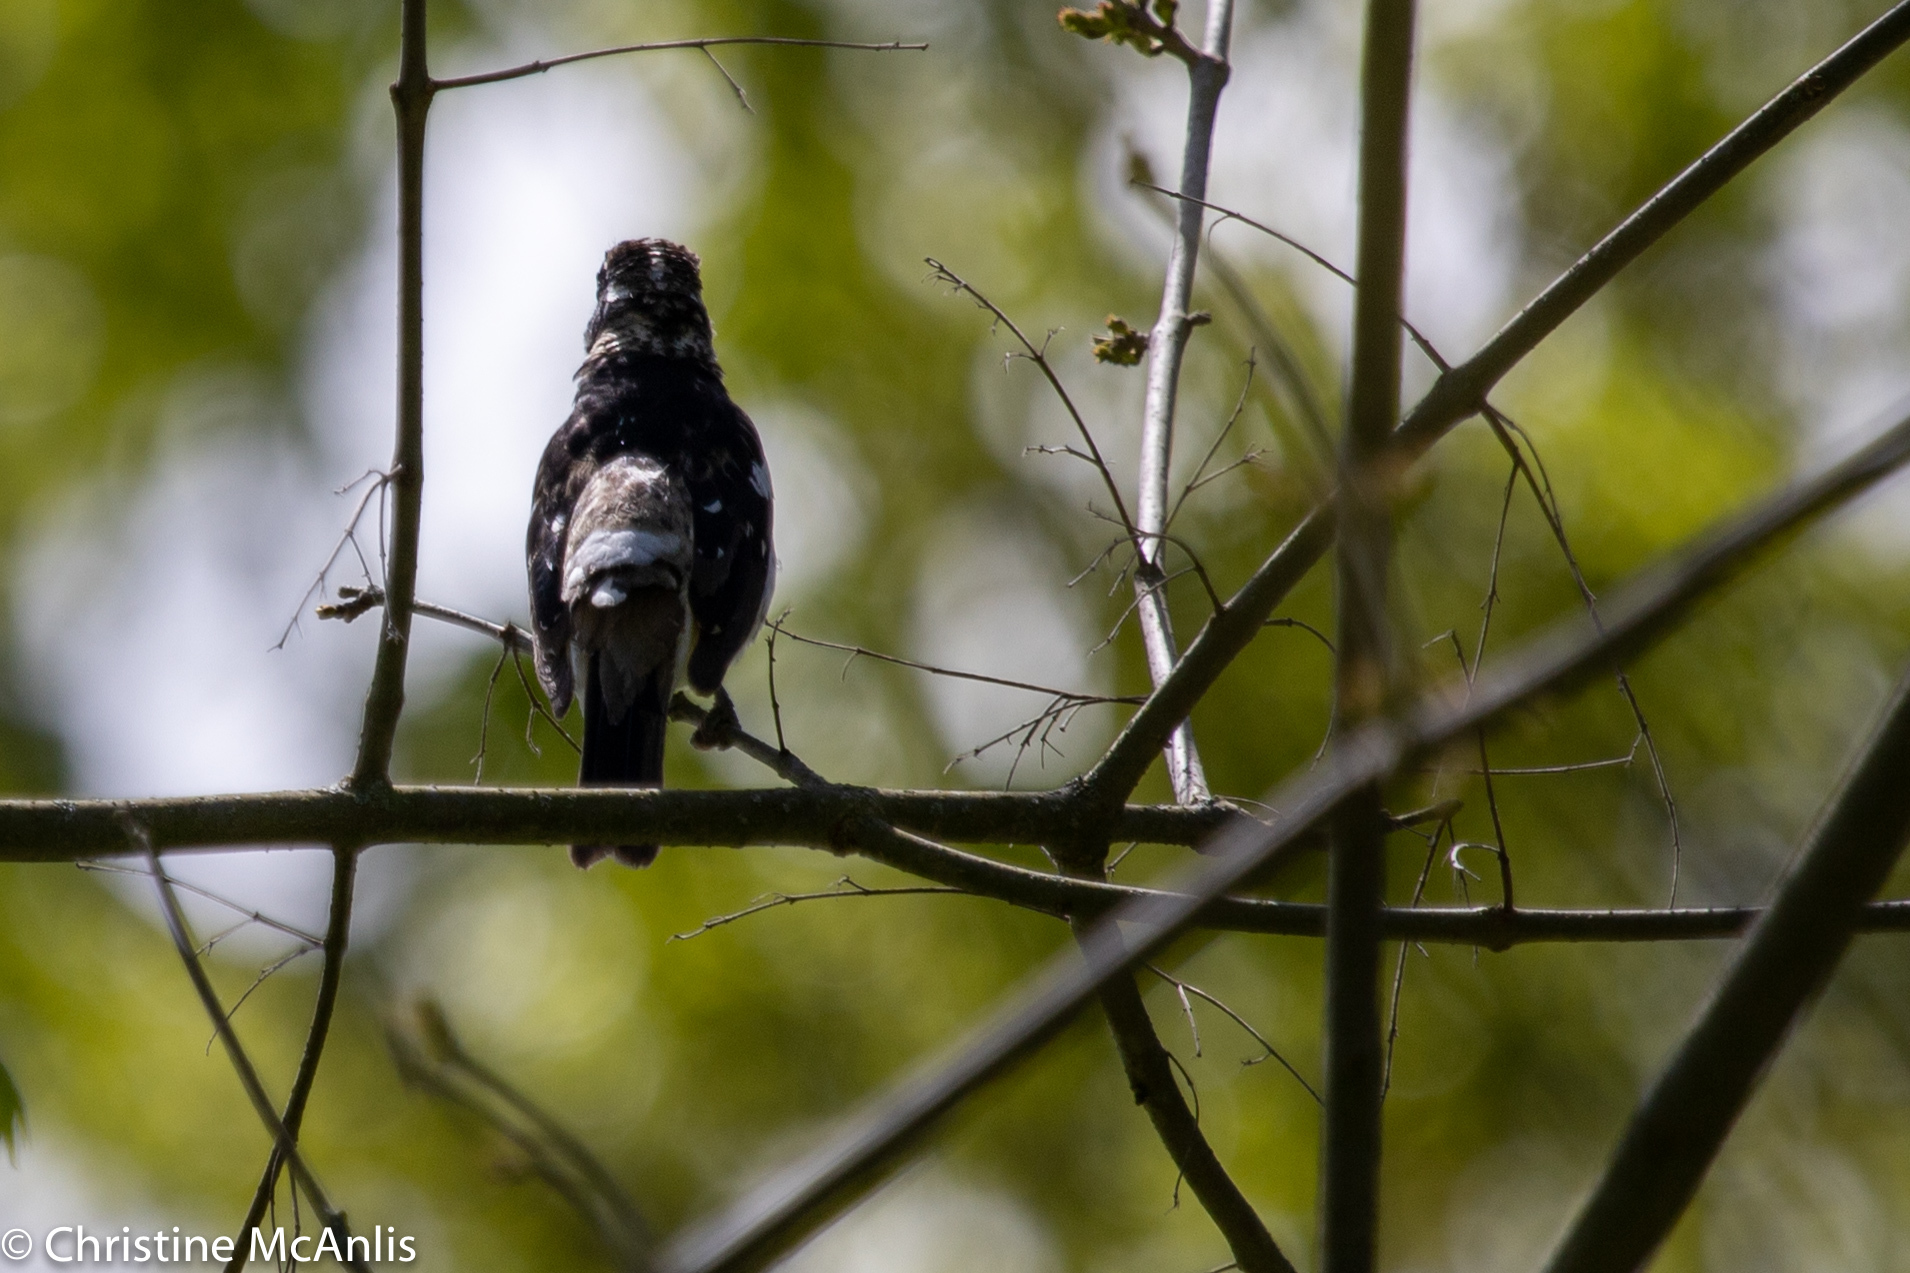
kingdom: Animalia
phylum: Chordata
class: Aves
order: Passeriformes
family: Cardinalidae
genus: Pheucticus
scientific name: Pheucticus ludovicianus
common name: Rose-breasted grosbeak
